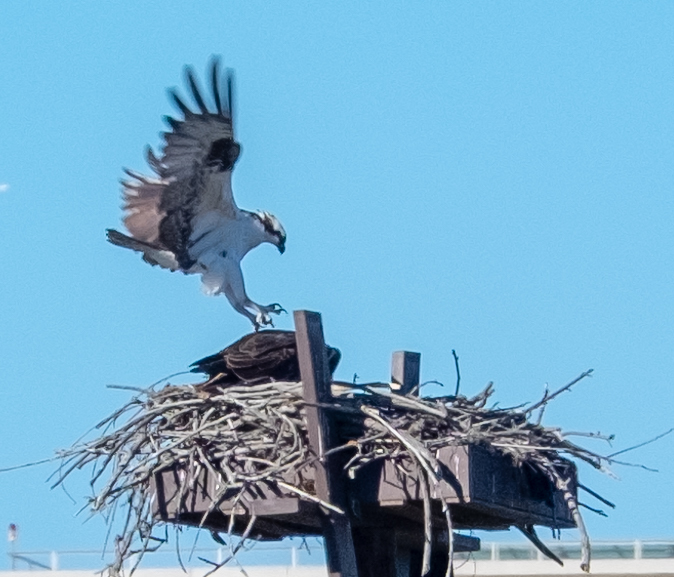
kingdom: Animalia
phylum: Chordata
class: Aves
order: Accipitriformes
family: Pandionidae
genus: Pandion
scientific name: Pandion haliaetus
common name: Osprey
